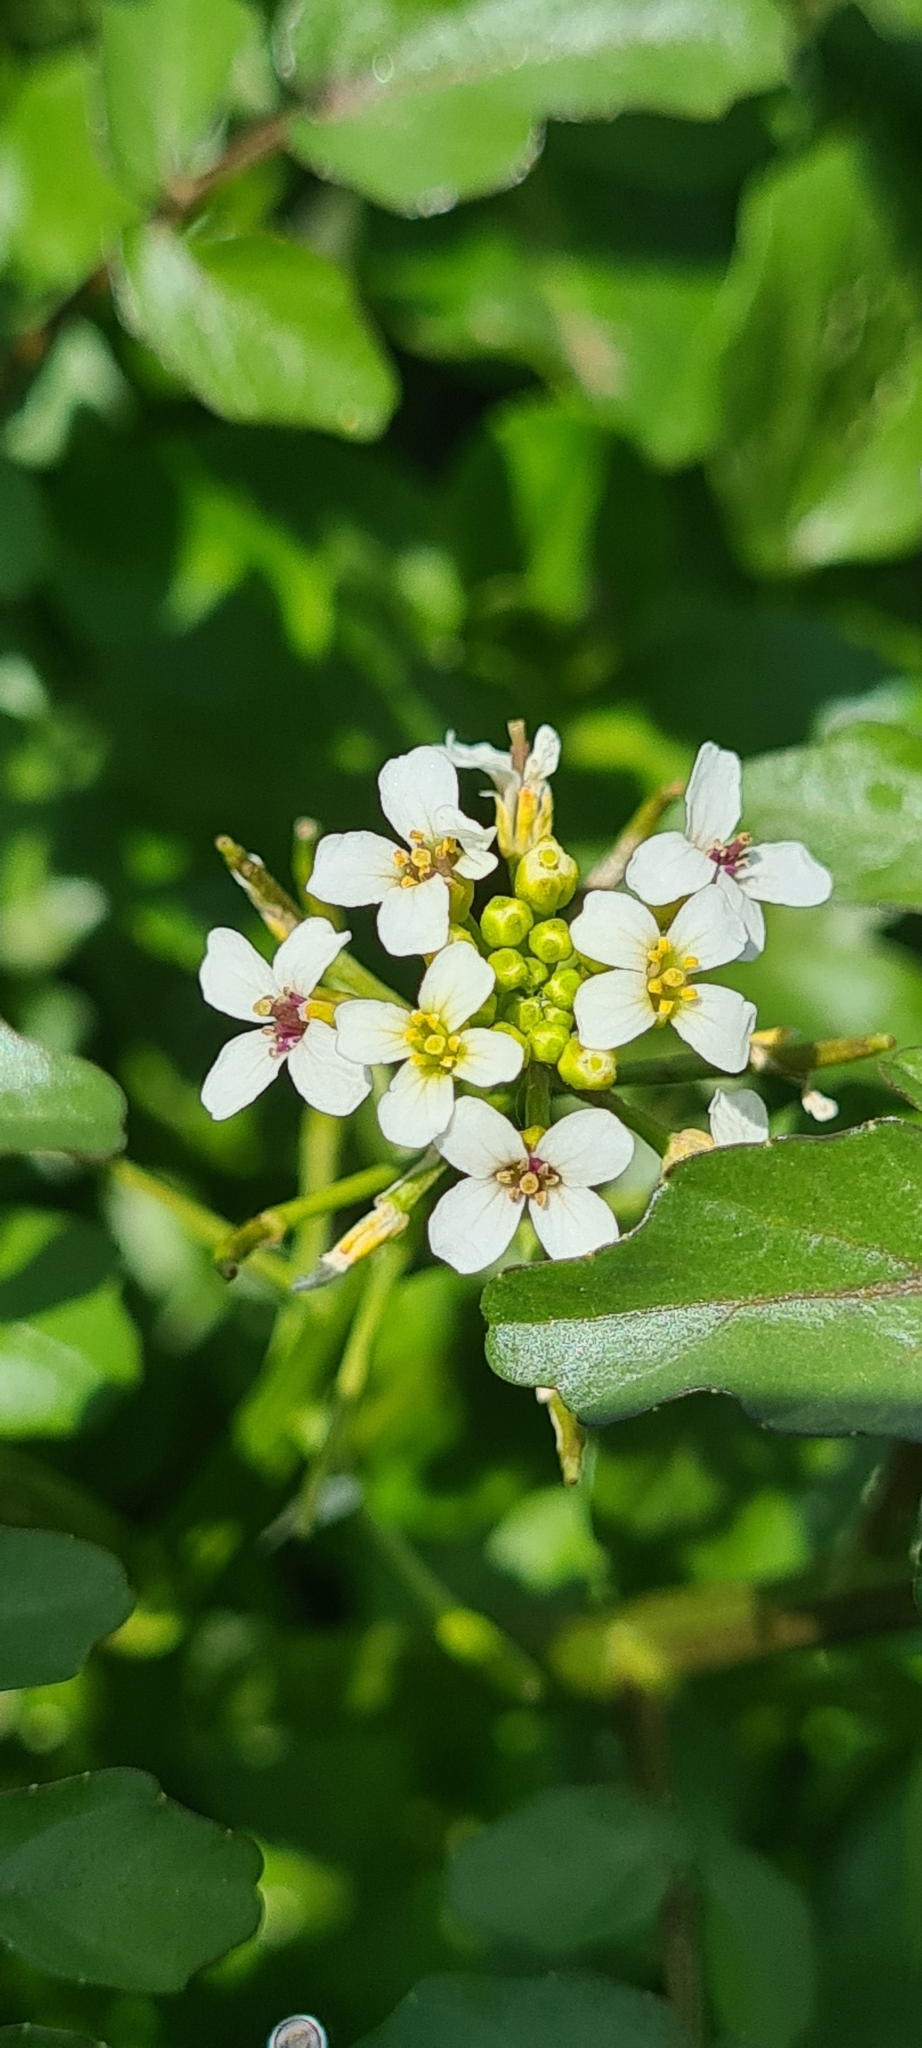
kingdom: Plantae
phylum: Tracheophyta
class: Magnoliopsida
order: Brassicales
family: Brassicaceae
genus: Nasturtium
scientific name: Nasturtium officinale
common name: Watercress
